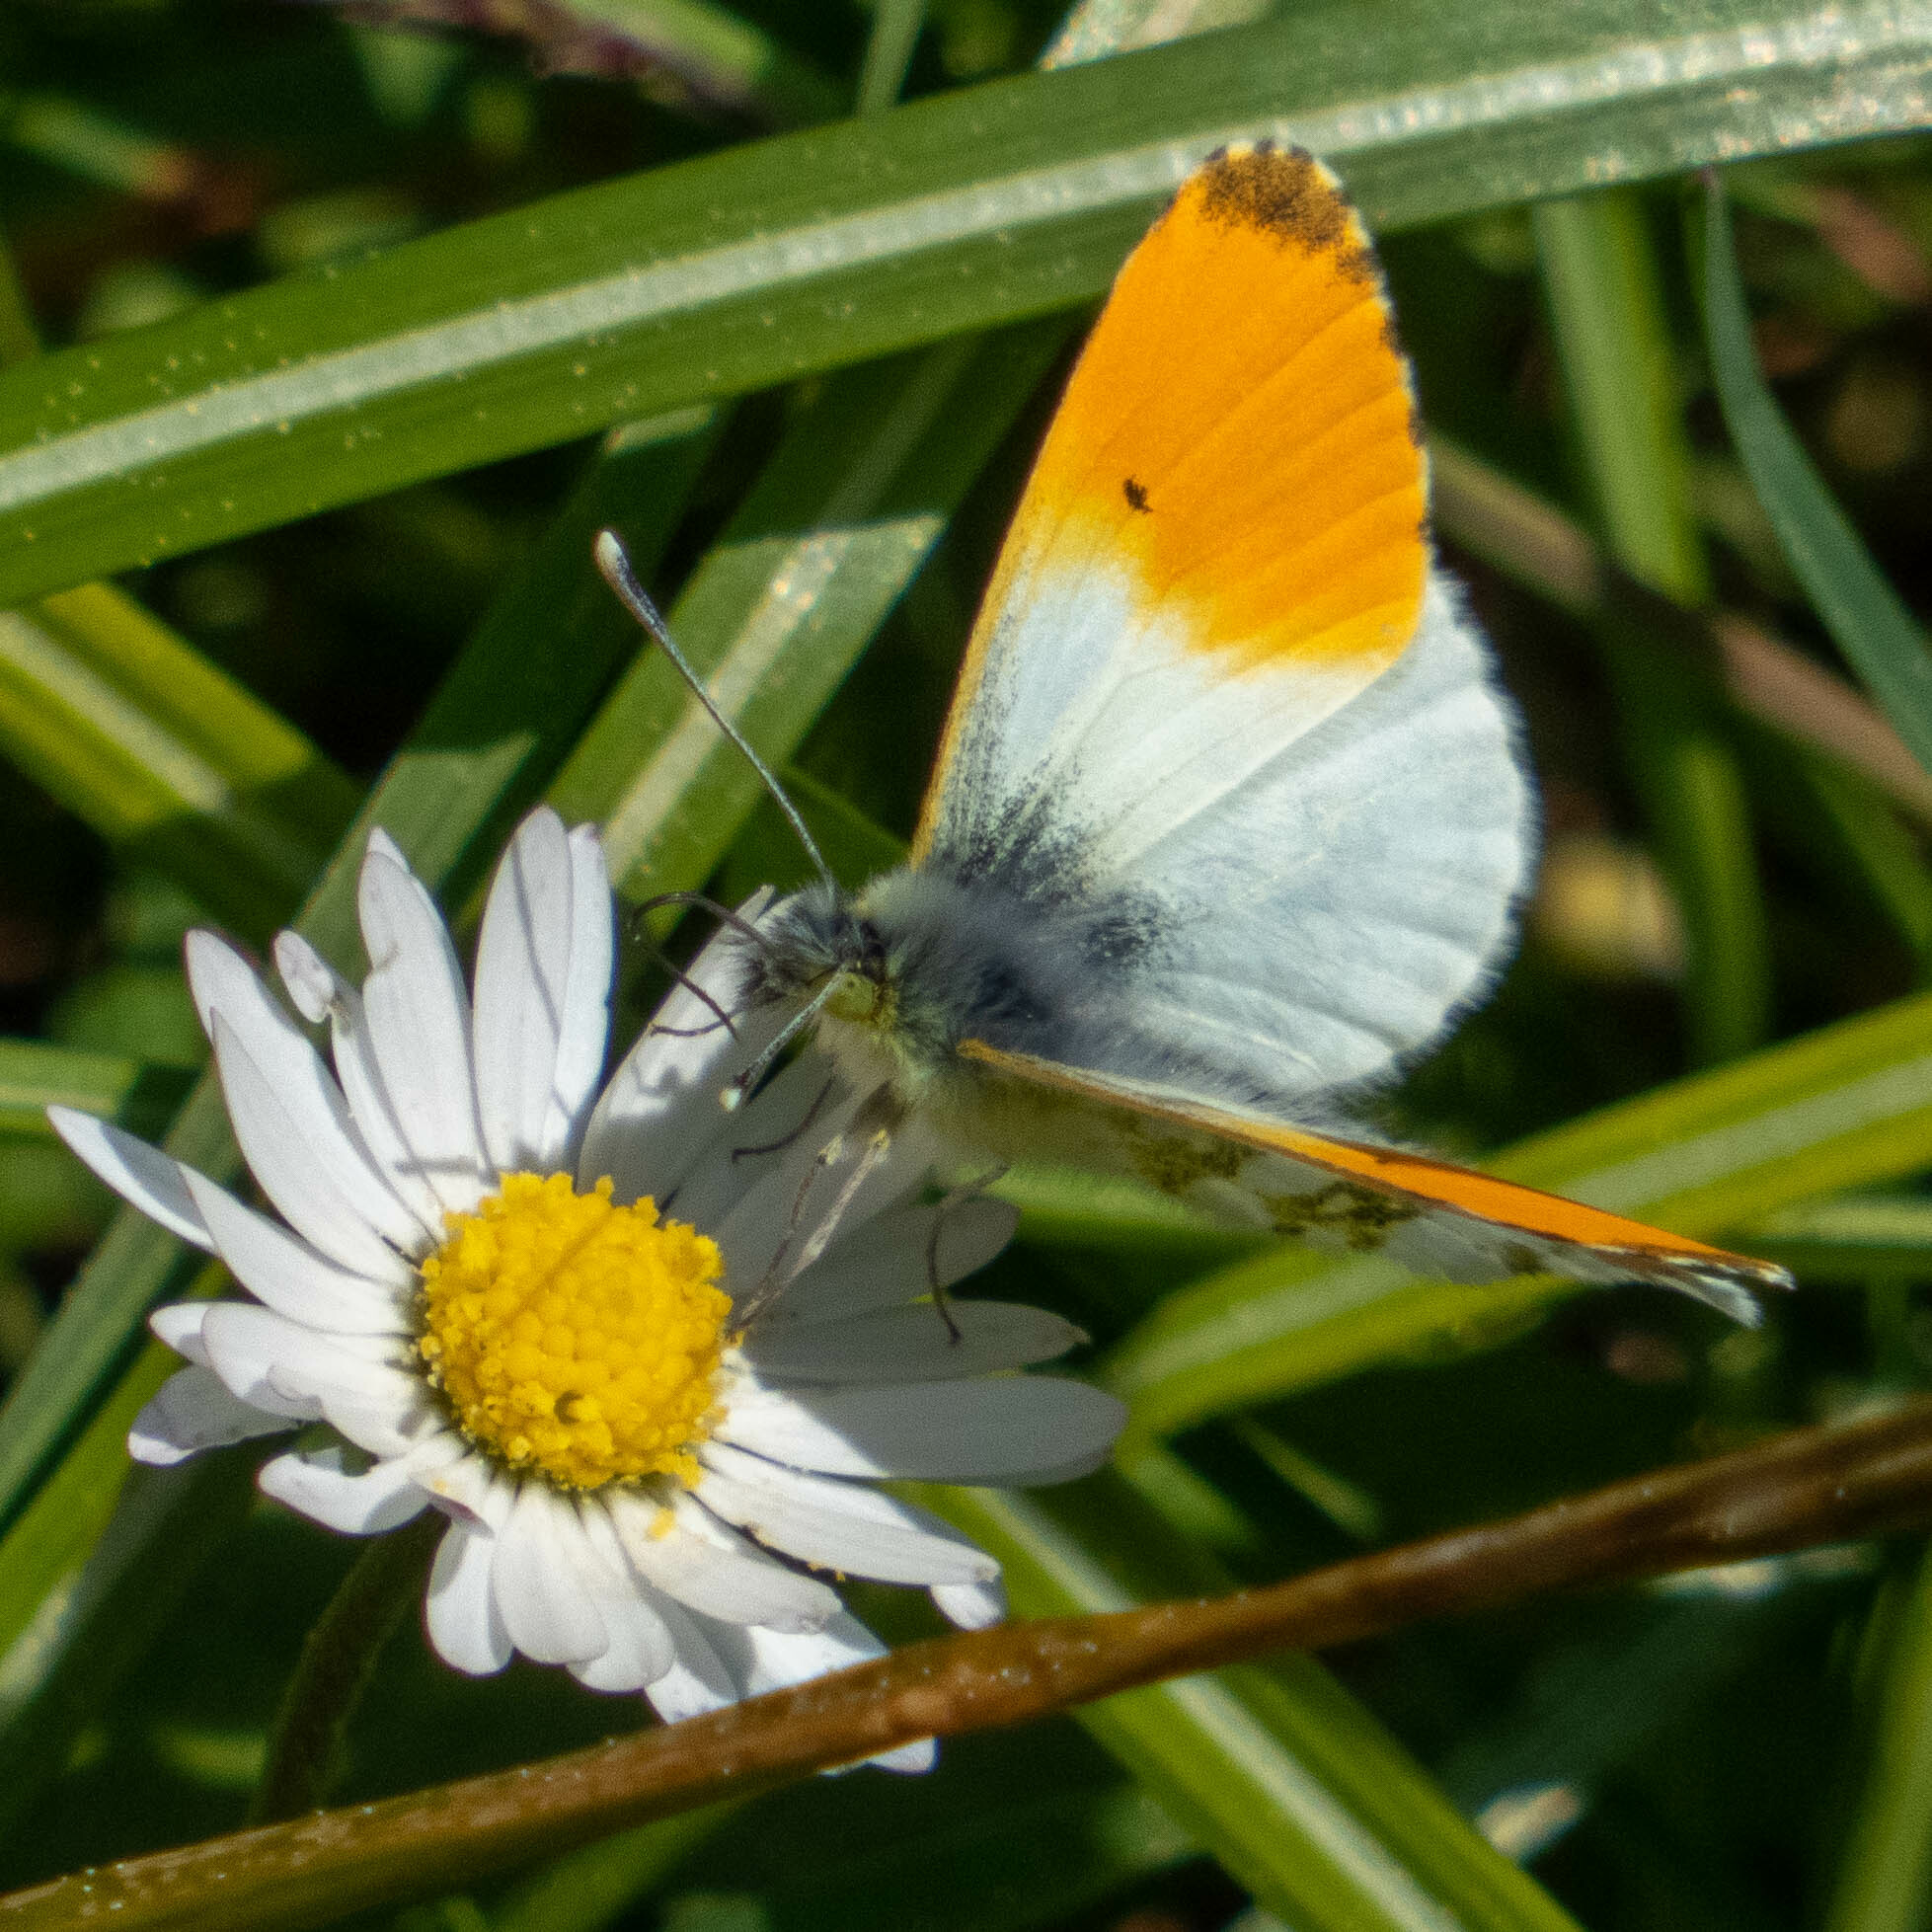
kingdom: Animalia
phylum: Arthropoda
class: Insecta
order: Lepidoptera
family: Pieridae
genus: Anthocharis
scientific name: Anthocharis cardamines
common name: Orange-tip
